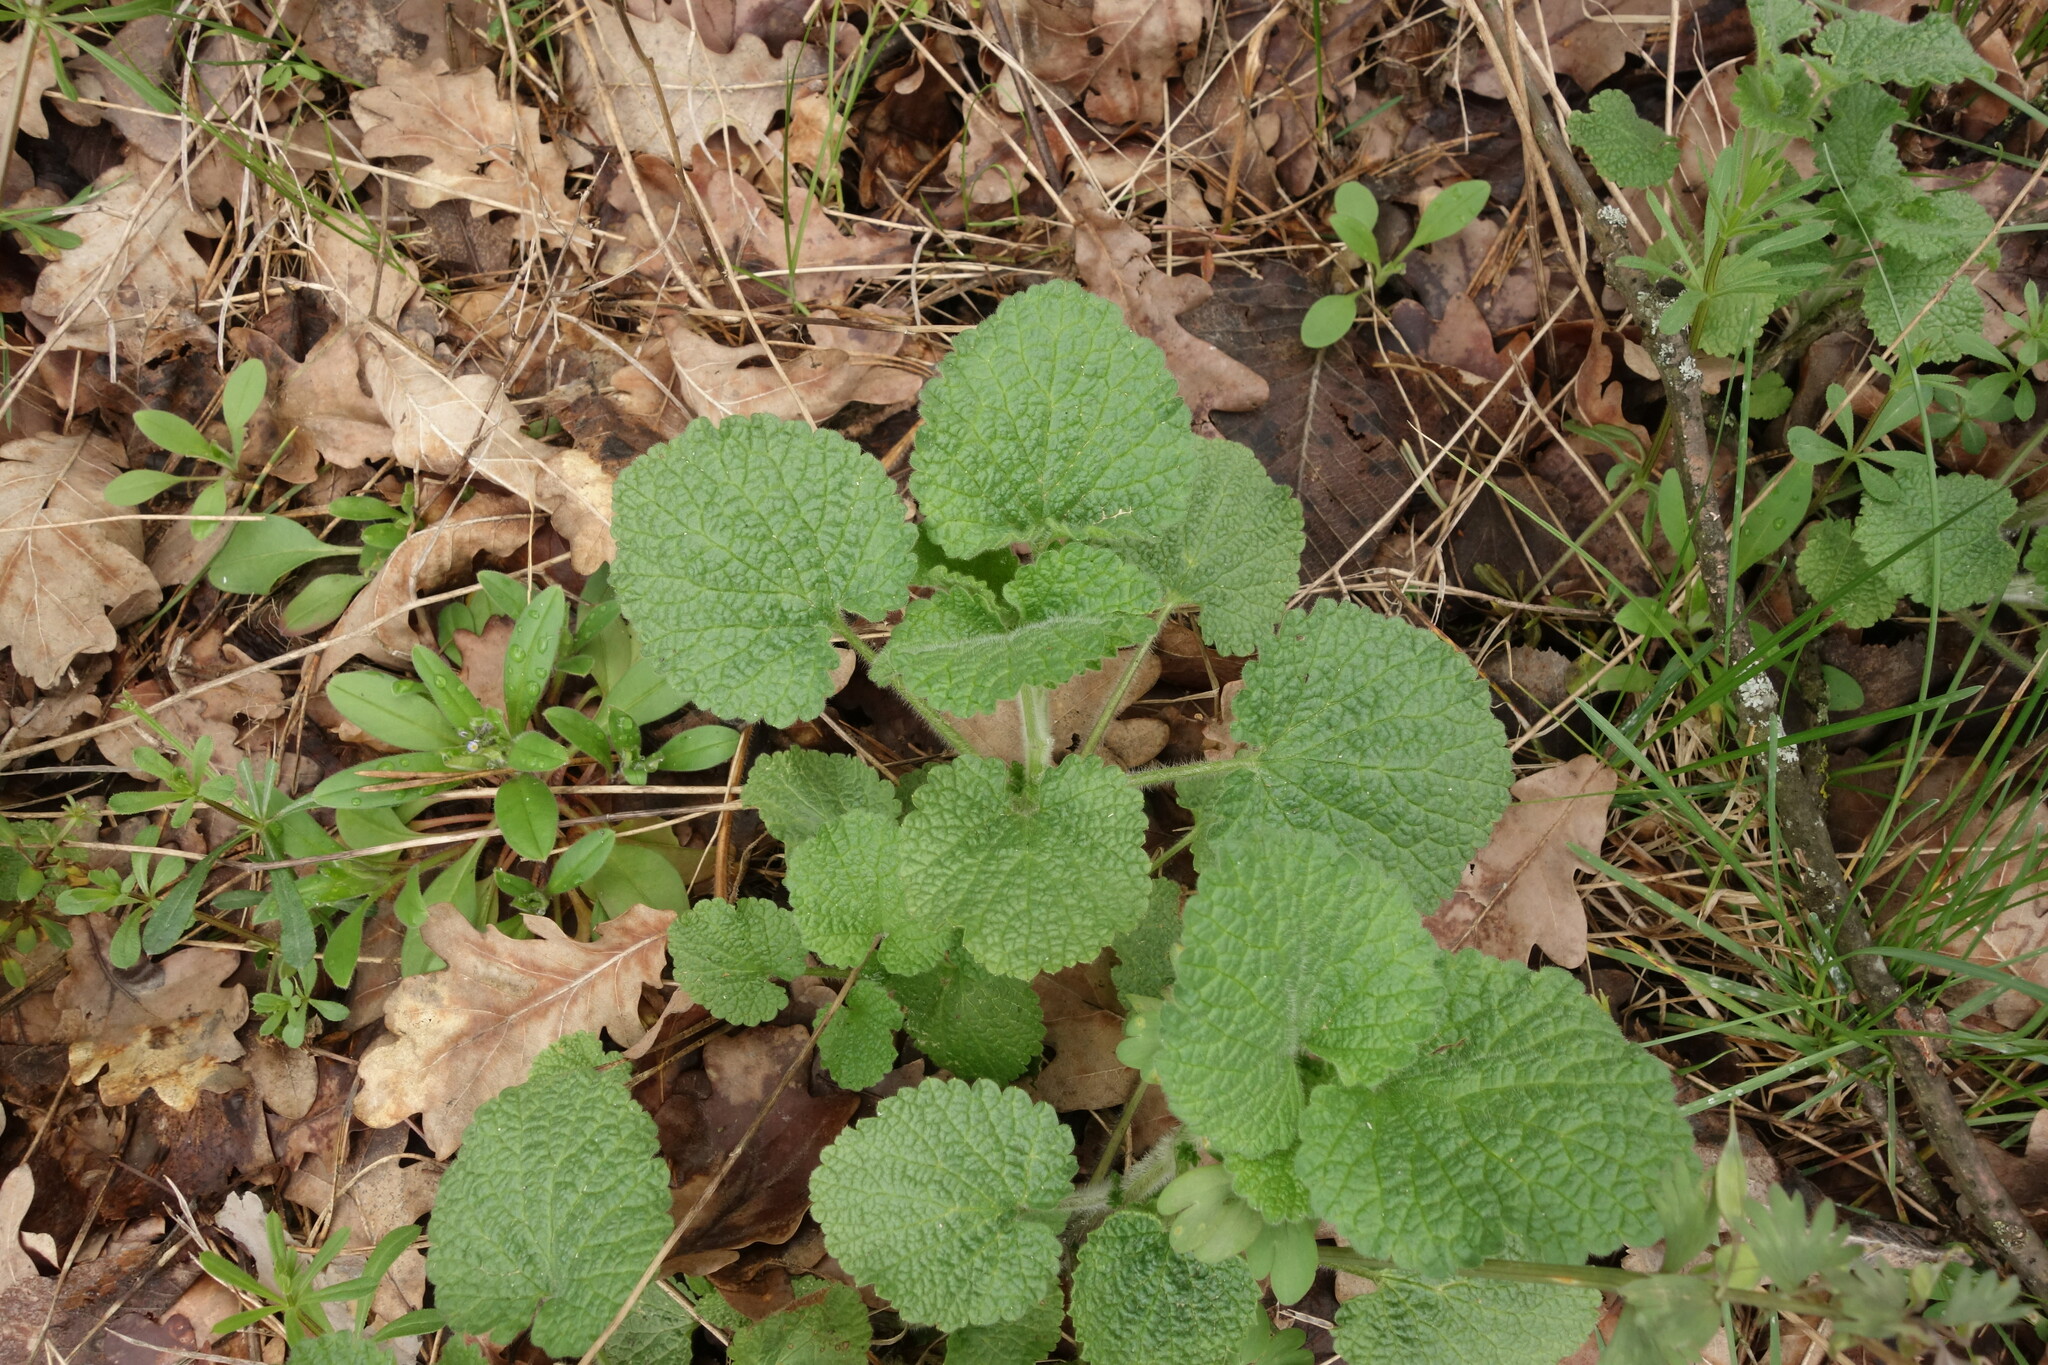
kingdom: Plantae
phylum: Tracheophyta
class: Magnoliopsida
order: Lamiales
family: Lamiaceae
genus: Ballota
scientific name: Ballota nigra
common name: Black horehound
